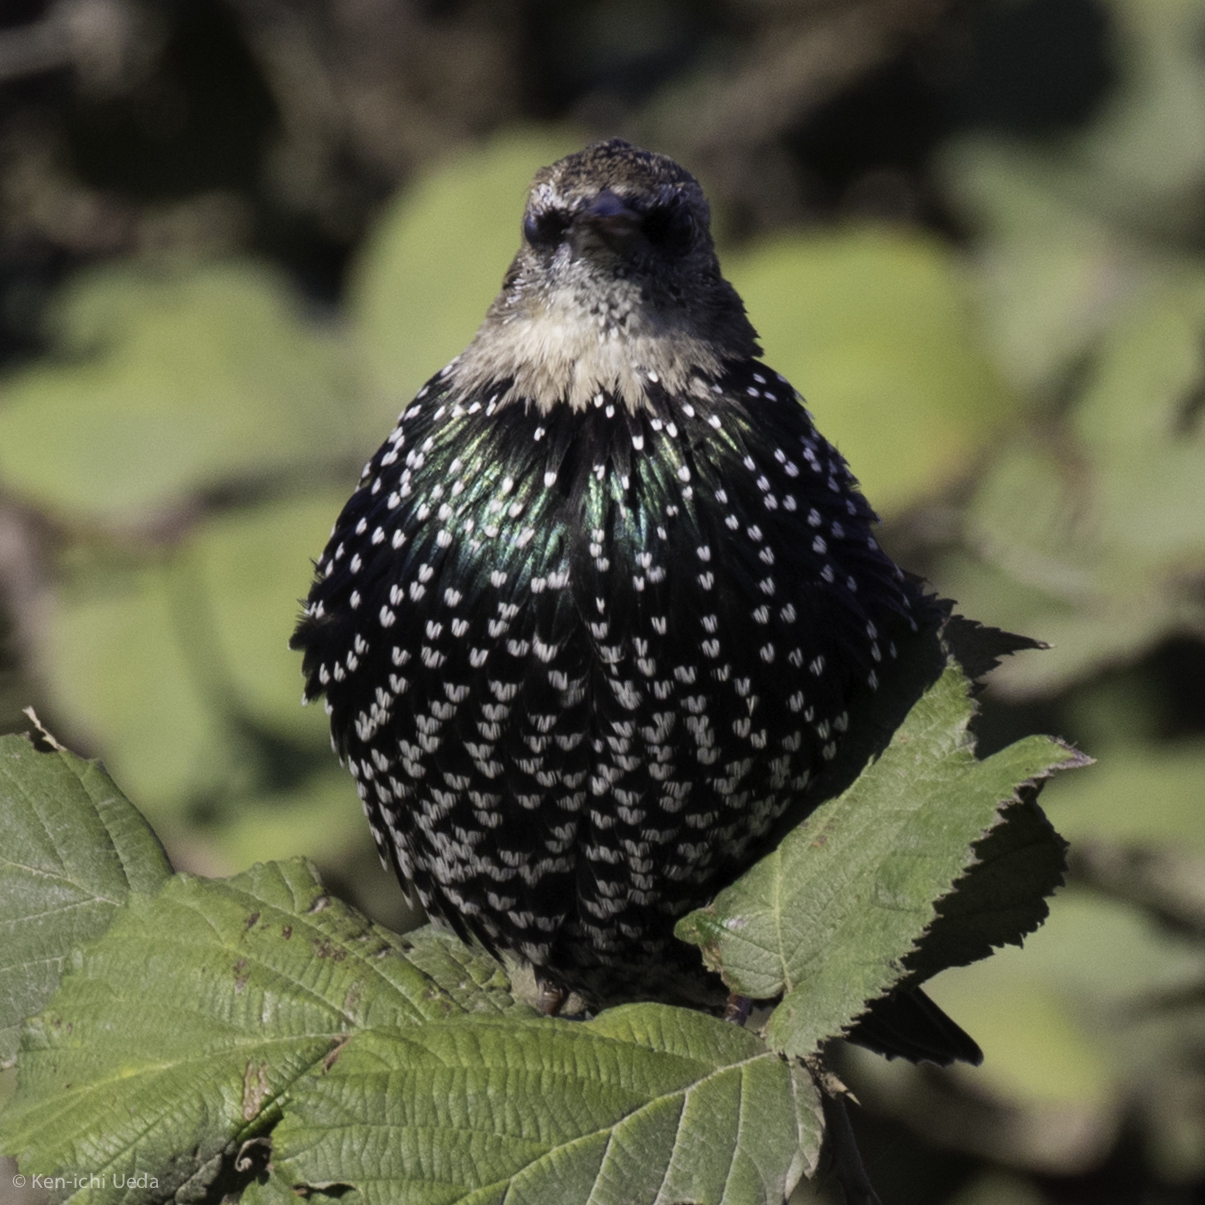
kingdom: Animalia
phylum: Chordata
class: Aves
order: Passeriformes
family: Sturnidae
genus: Sturnus
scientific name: Sturnus vulgaris
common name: Common starling
